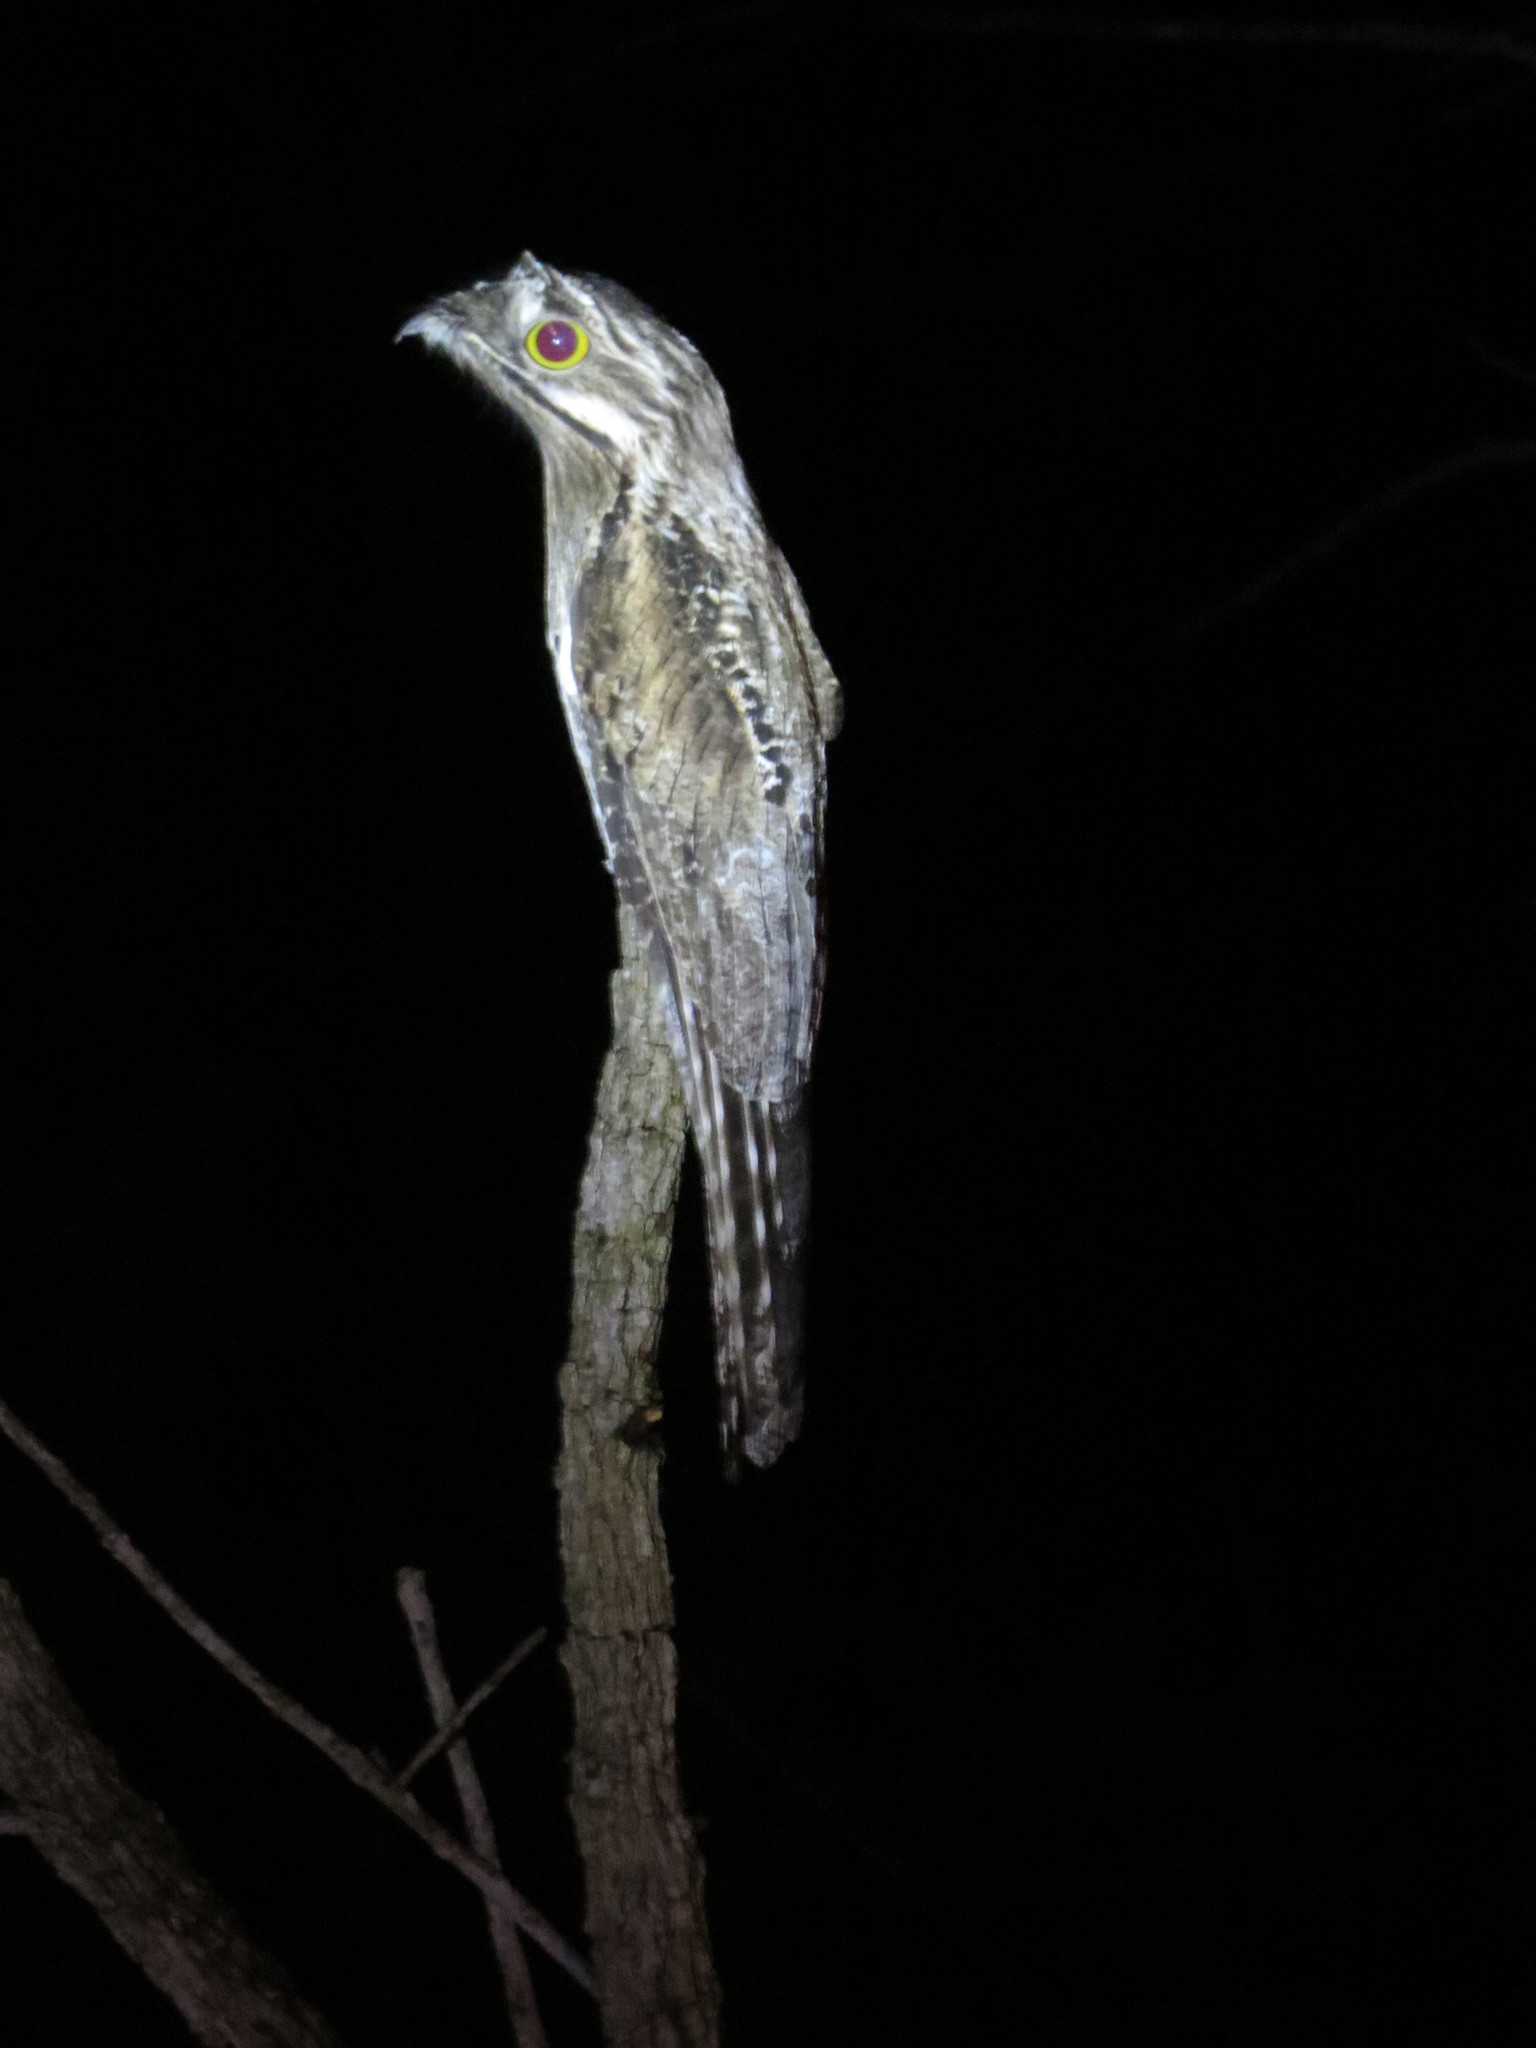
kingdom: Animalia
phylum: Chordata
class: Aves
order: Nyctibiiformes
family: Nyctibiidae
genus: Nyctibius
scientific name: Nyctibius griseus
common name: Common potoo
